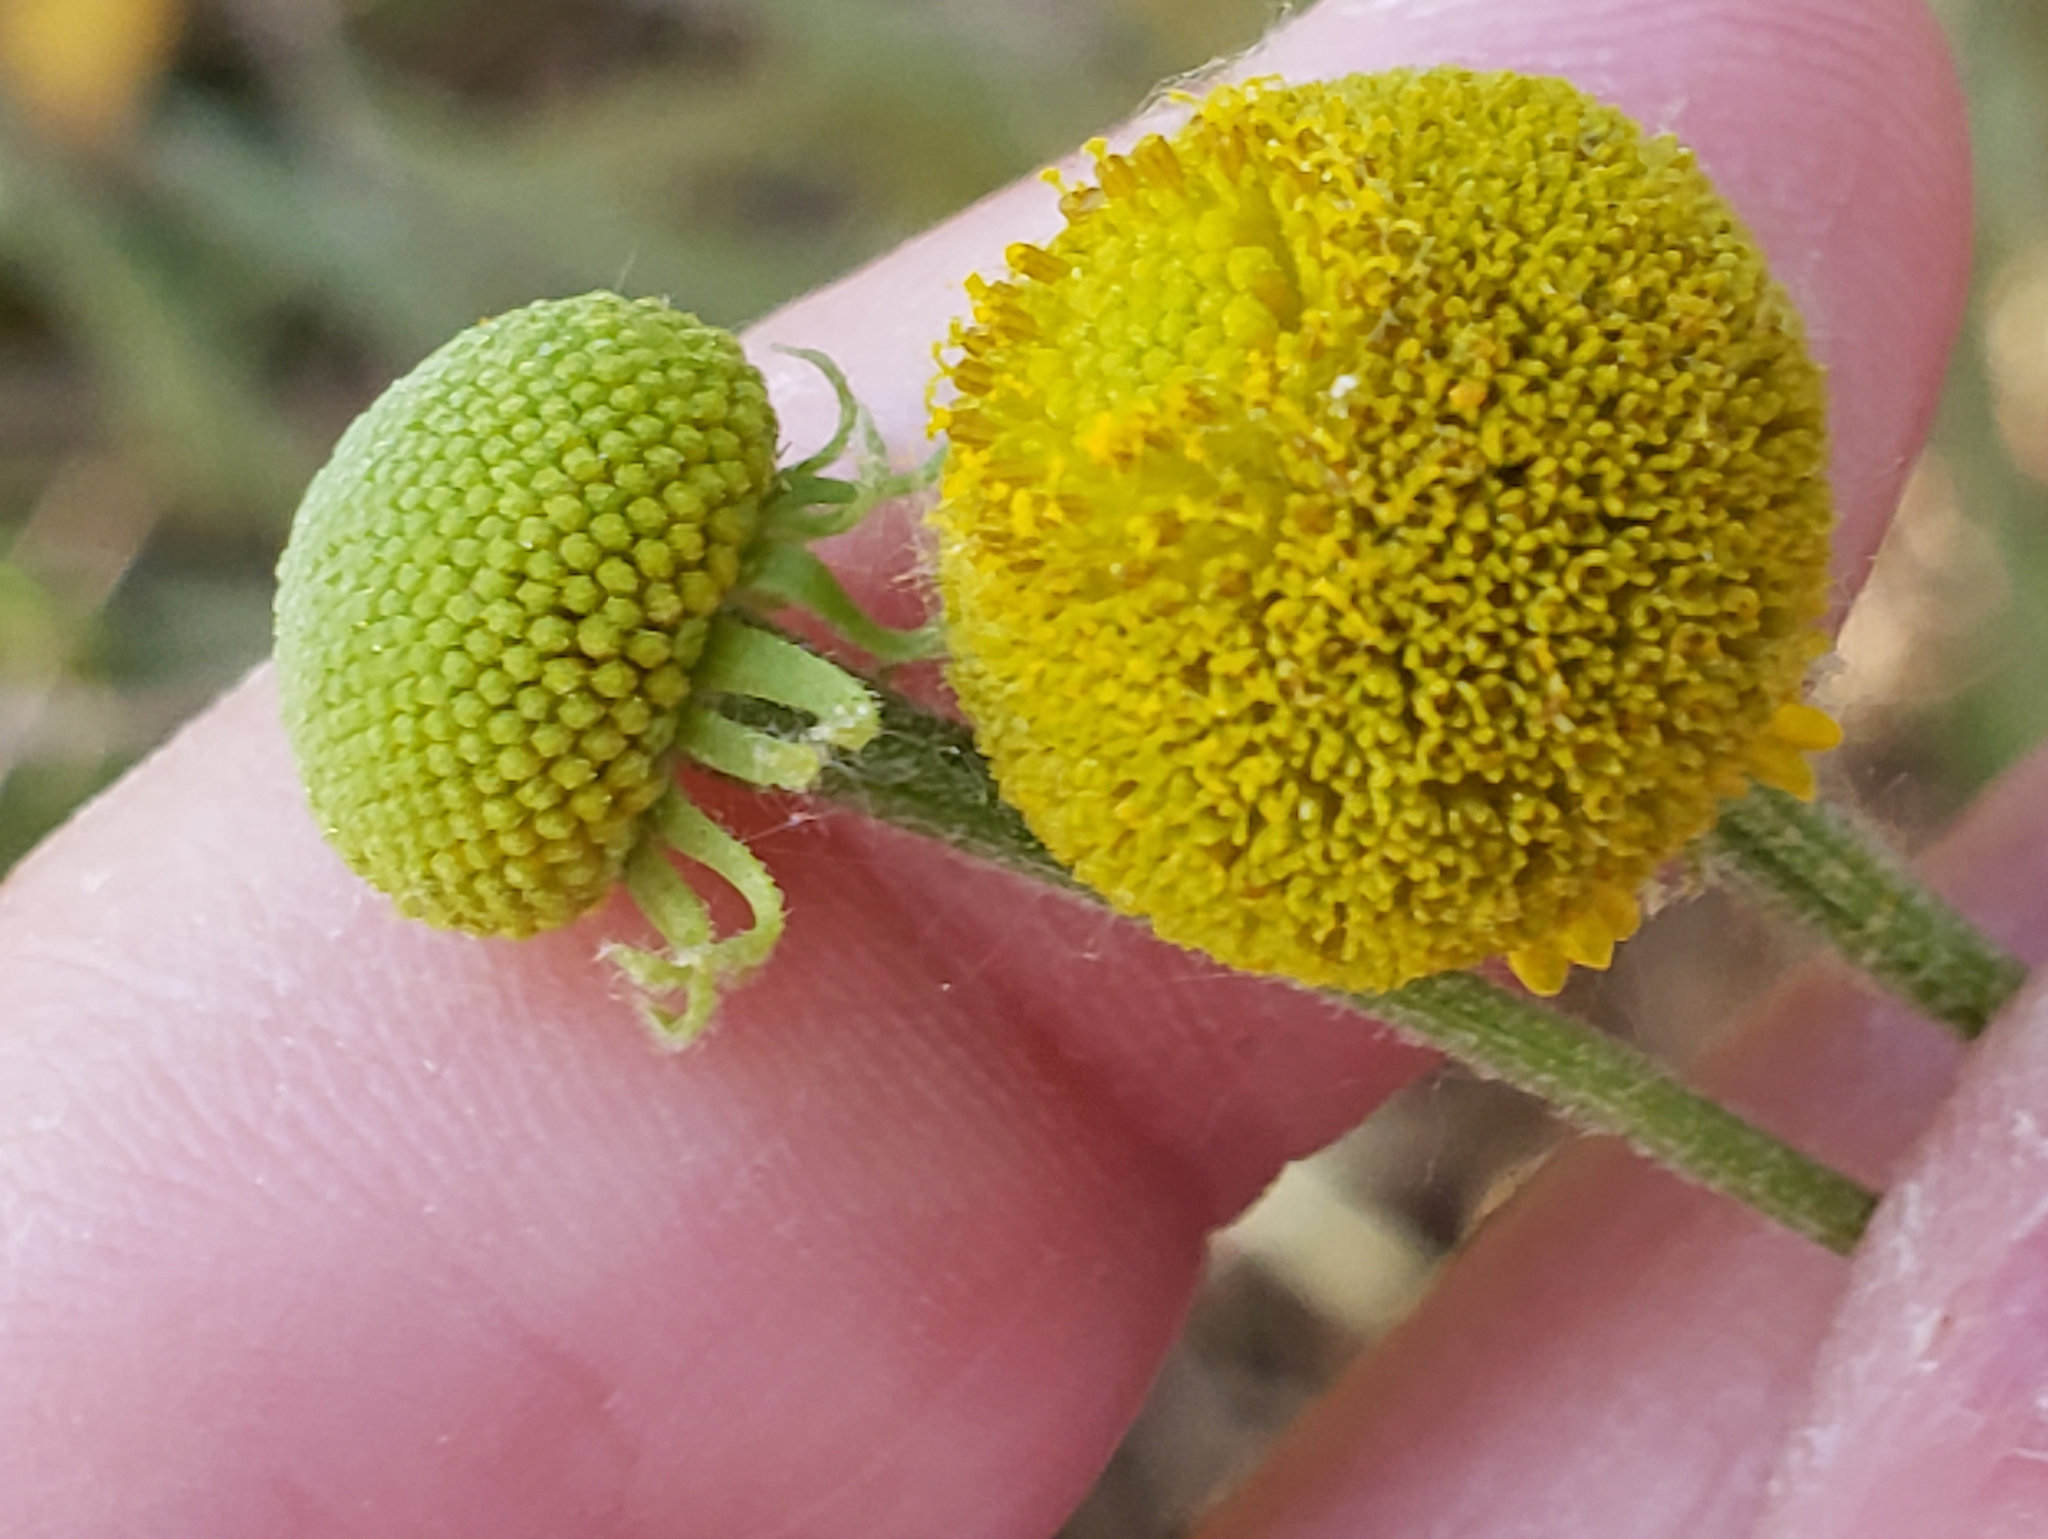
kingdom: Plantae
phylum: Tracheophyta
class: Magnoliopsida
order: Asterales
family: Asteraceae
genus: Helenium
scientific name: Helenium puberulum
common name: Sneezewort
